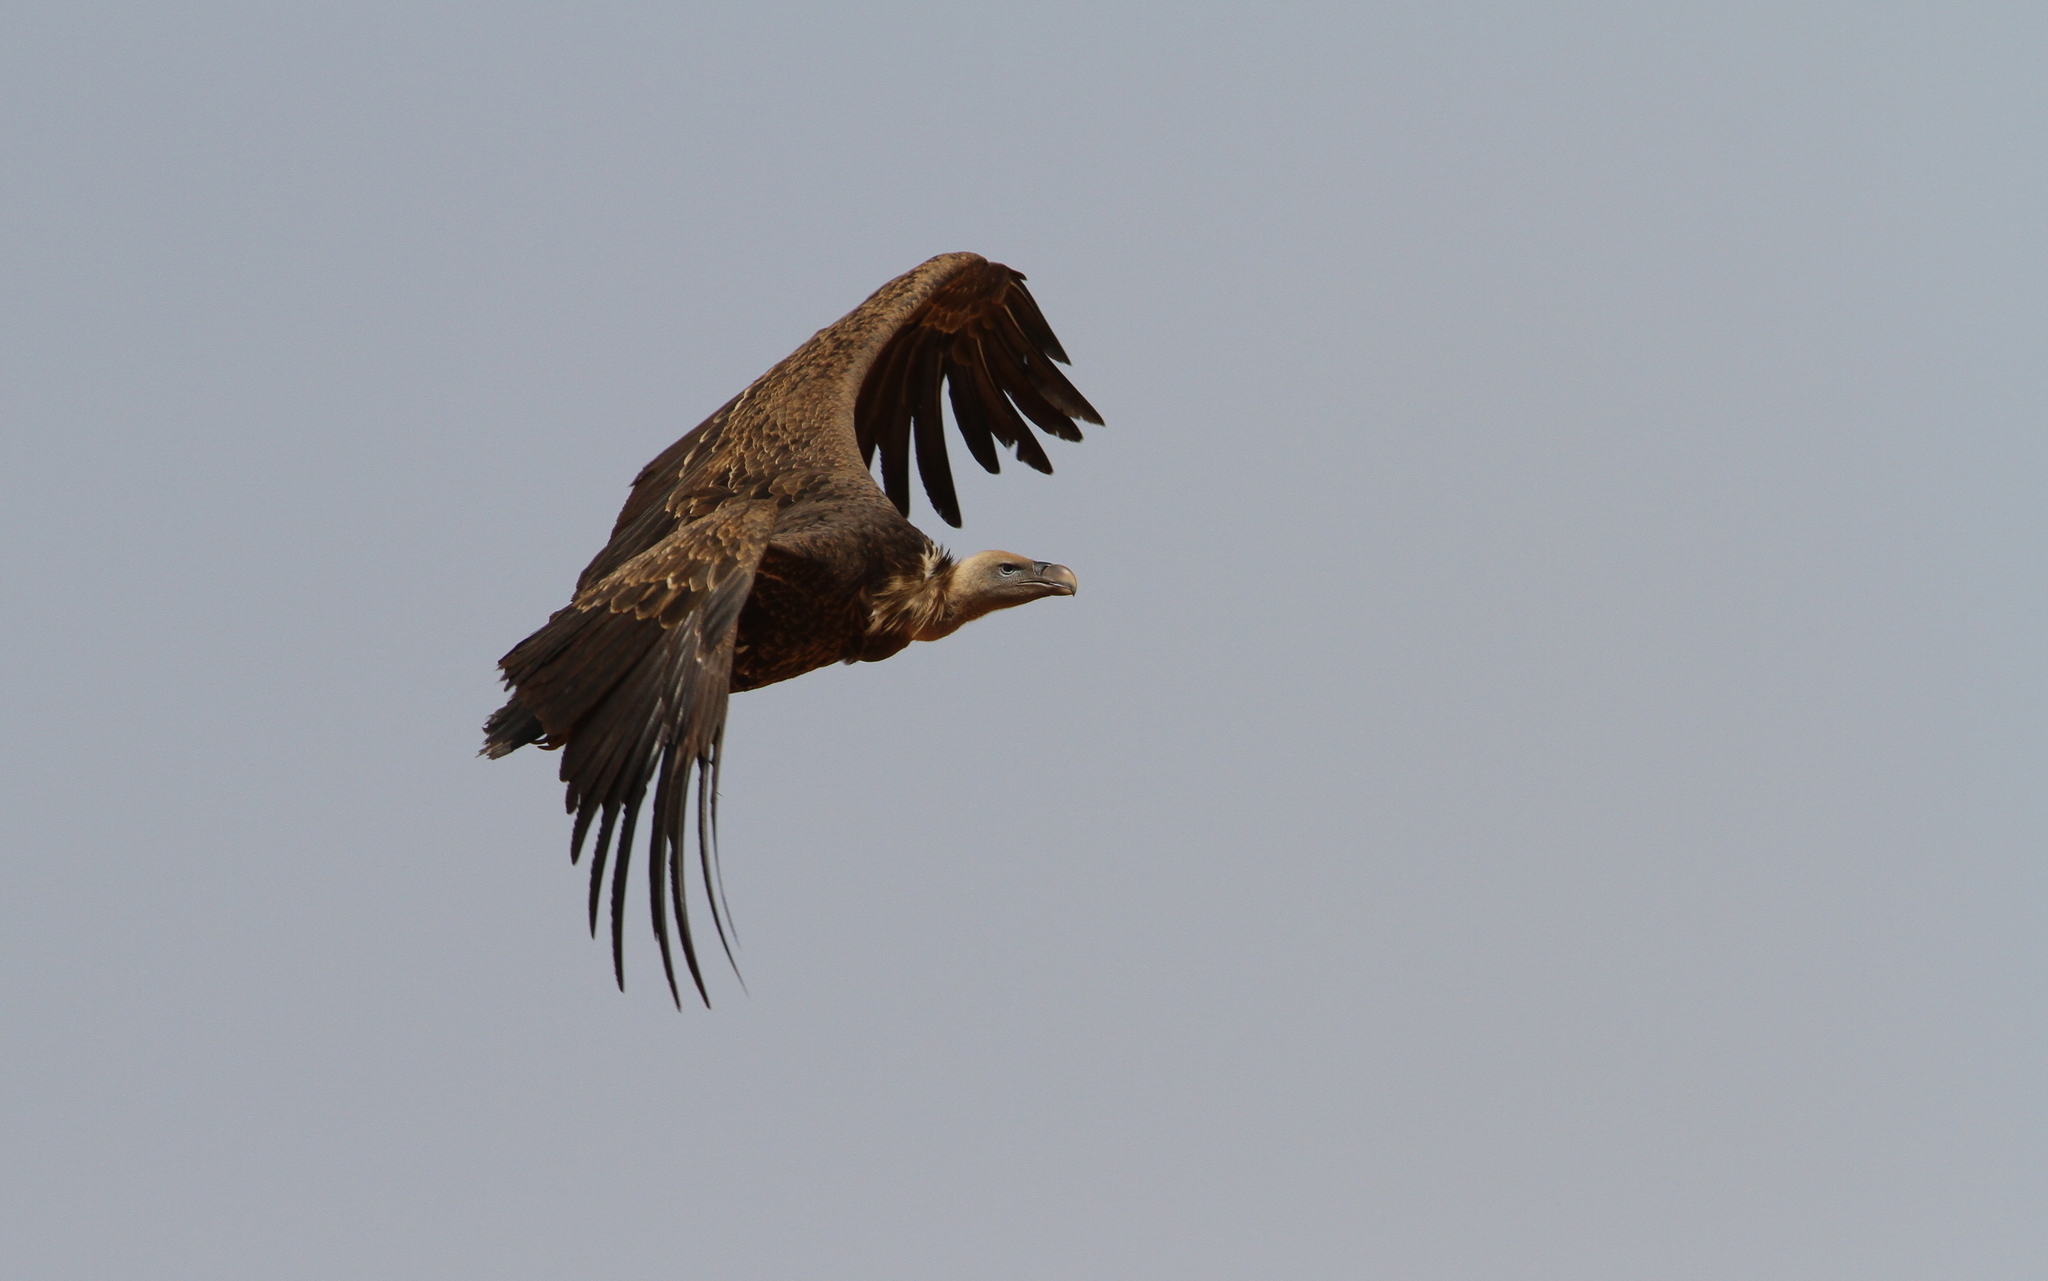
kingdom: Animalia
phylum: Chordata
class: Aves
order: Accipitriformes
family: Accipitridae
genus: Gyps
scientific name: Gyps rueppellii
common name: Rüppell's vulture
